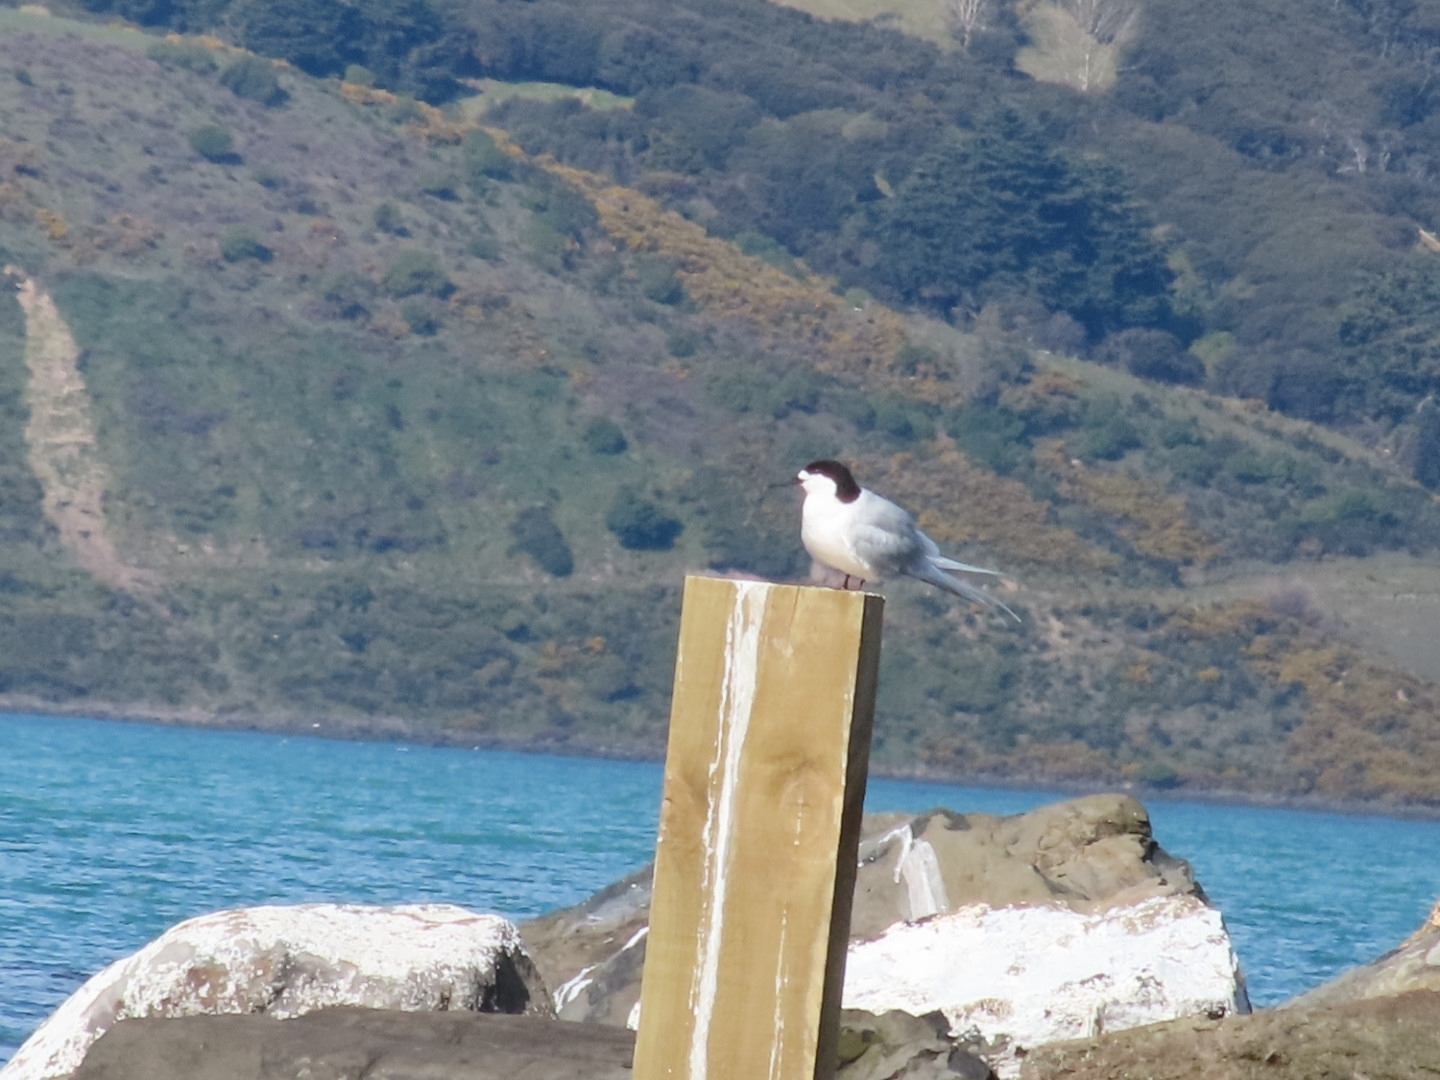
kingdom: Animalia
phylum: Chordata
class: Aves
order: Charadriiformes
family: Laridae
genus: Sterna
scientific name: Sterna striata
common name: White-fronted tern
